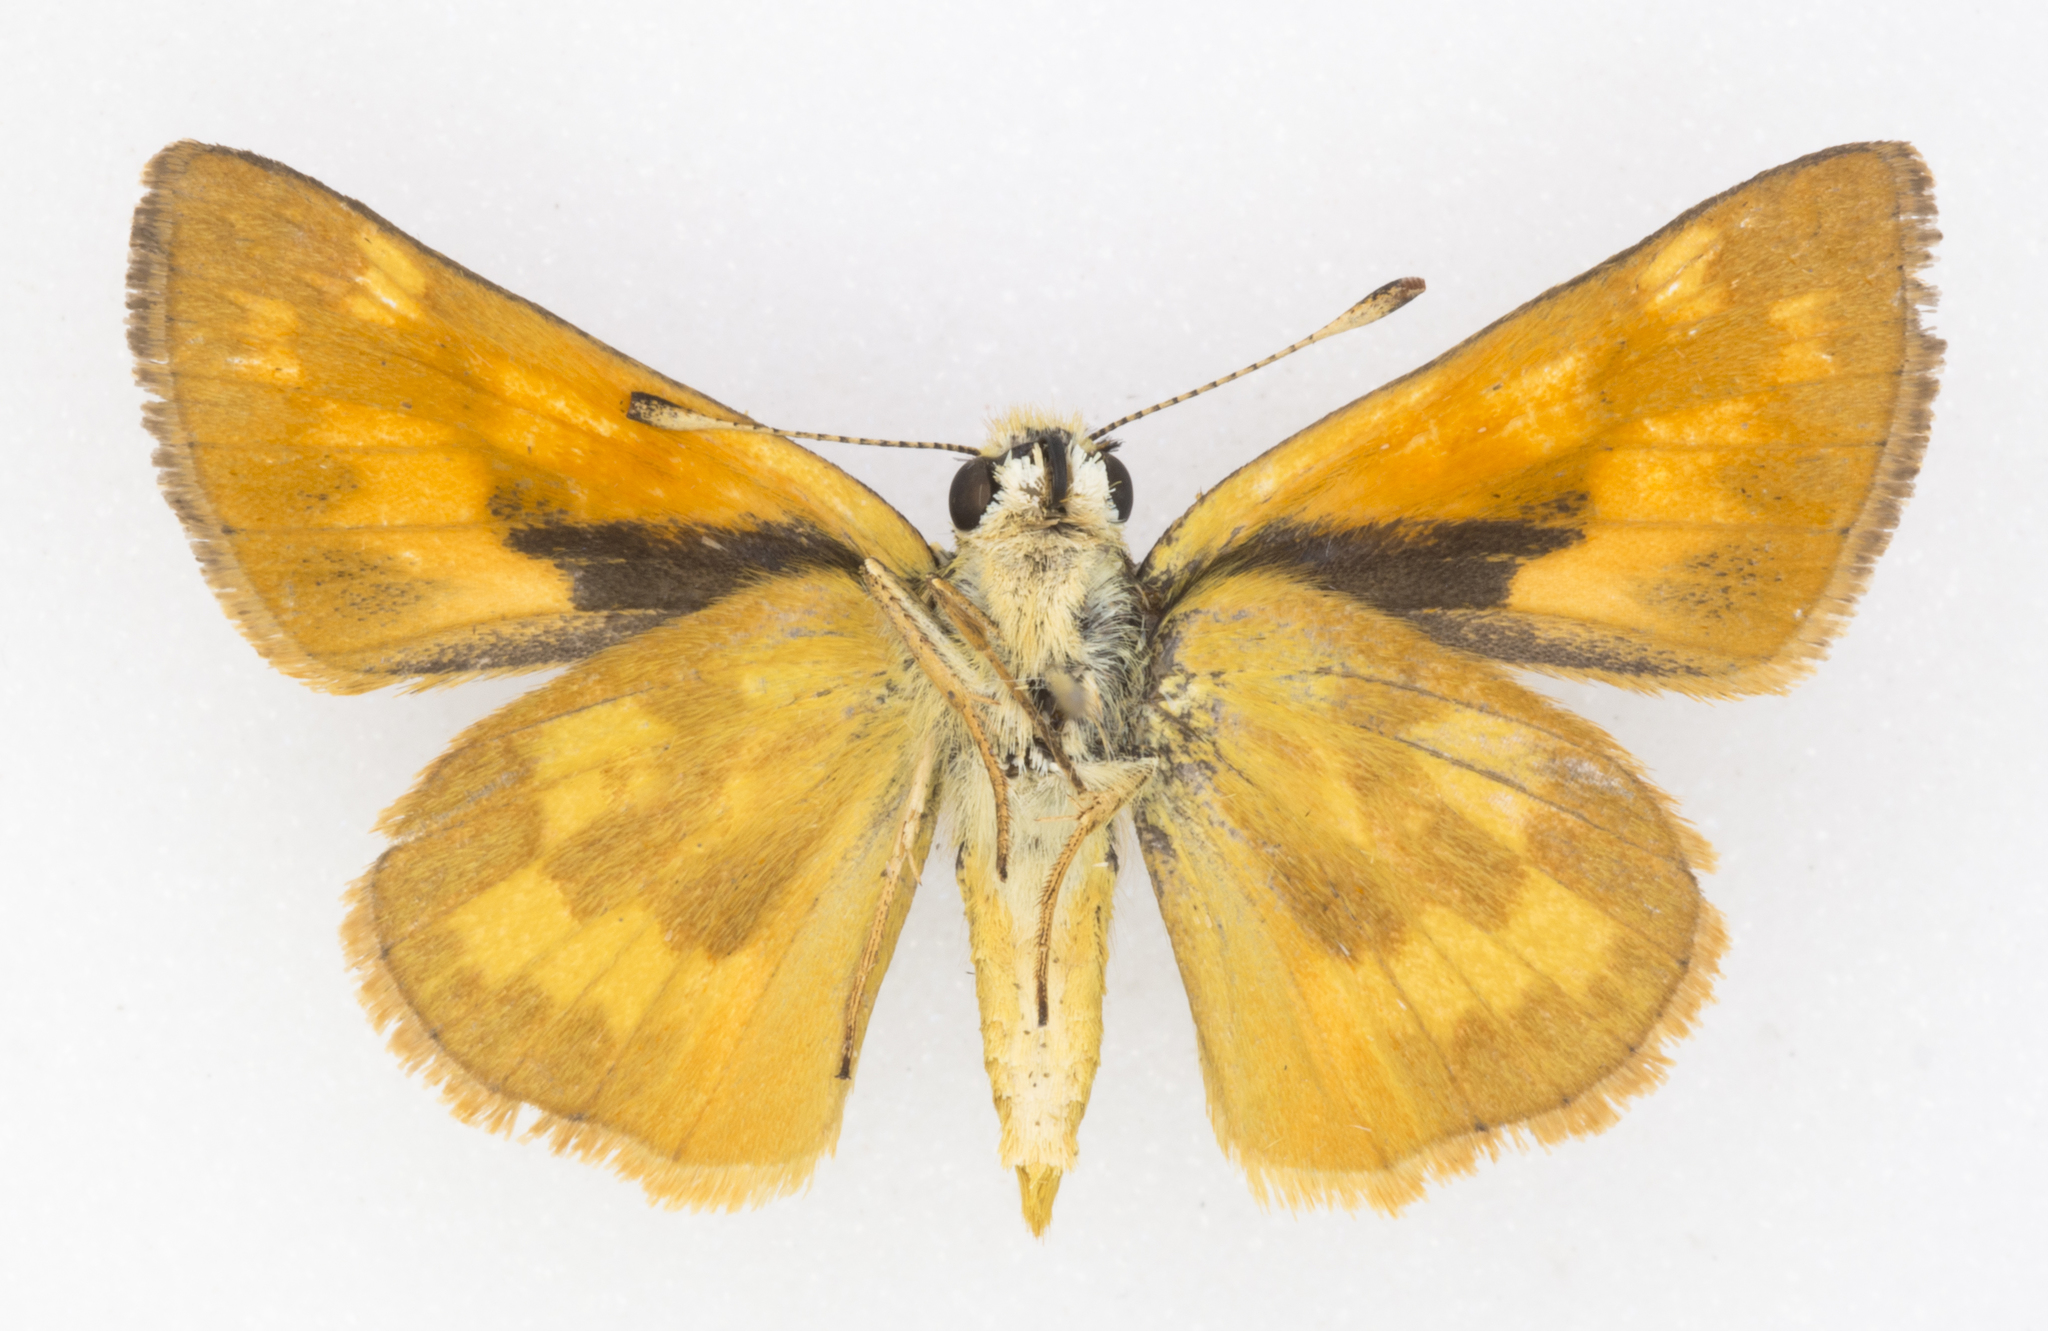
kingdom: Animalia
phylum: Arthropoda
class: Insecta
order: Lepidoptera
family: Hesperiidae
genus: Ochlodes
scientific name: Ochlodes sylvanoides
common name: Woodland skipper
